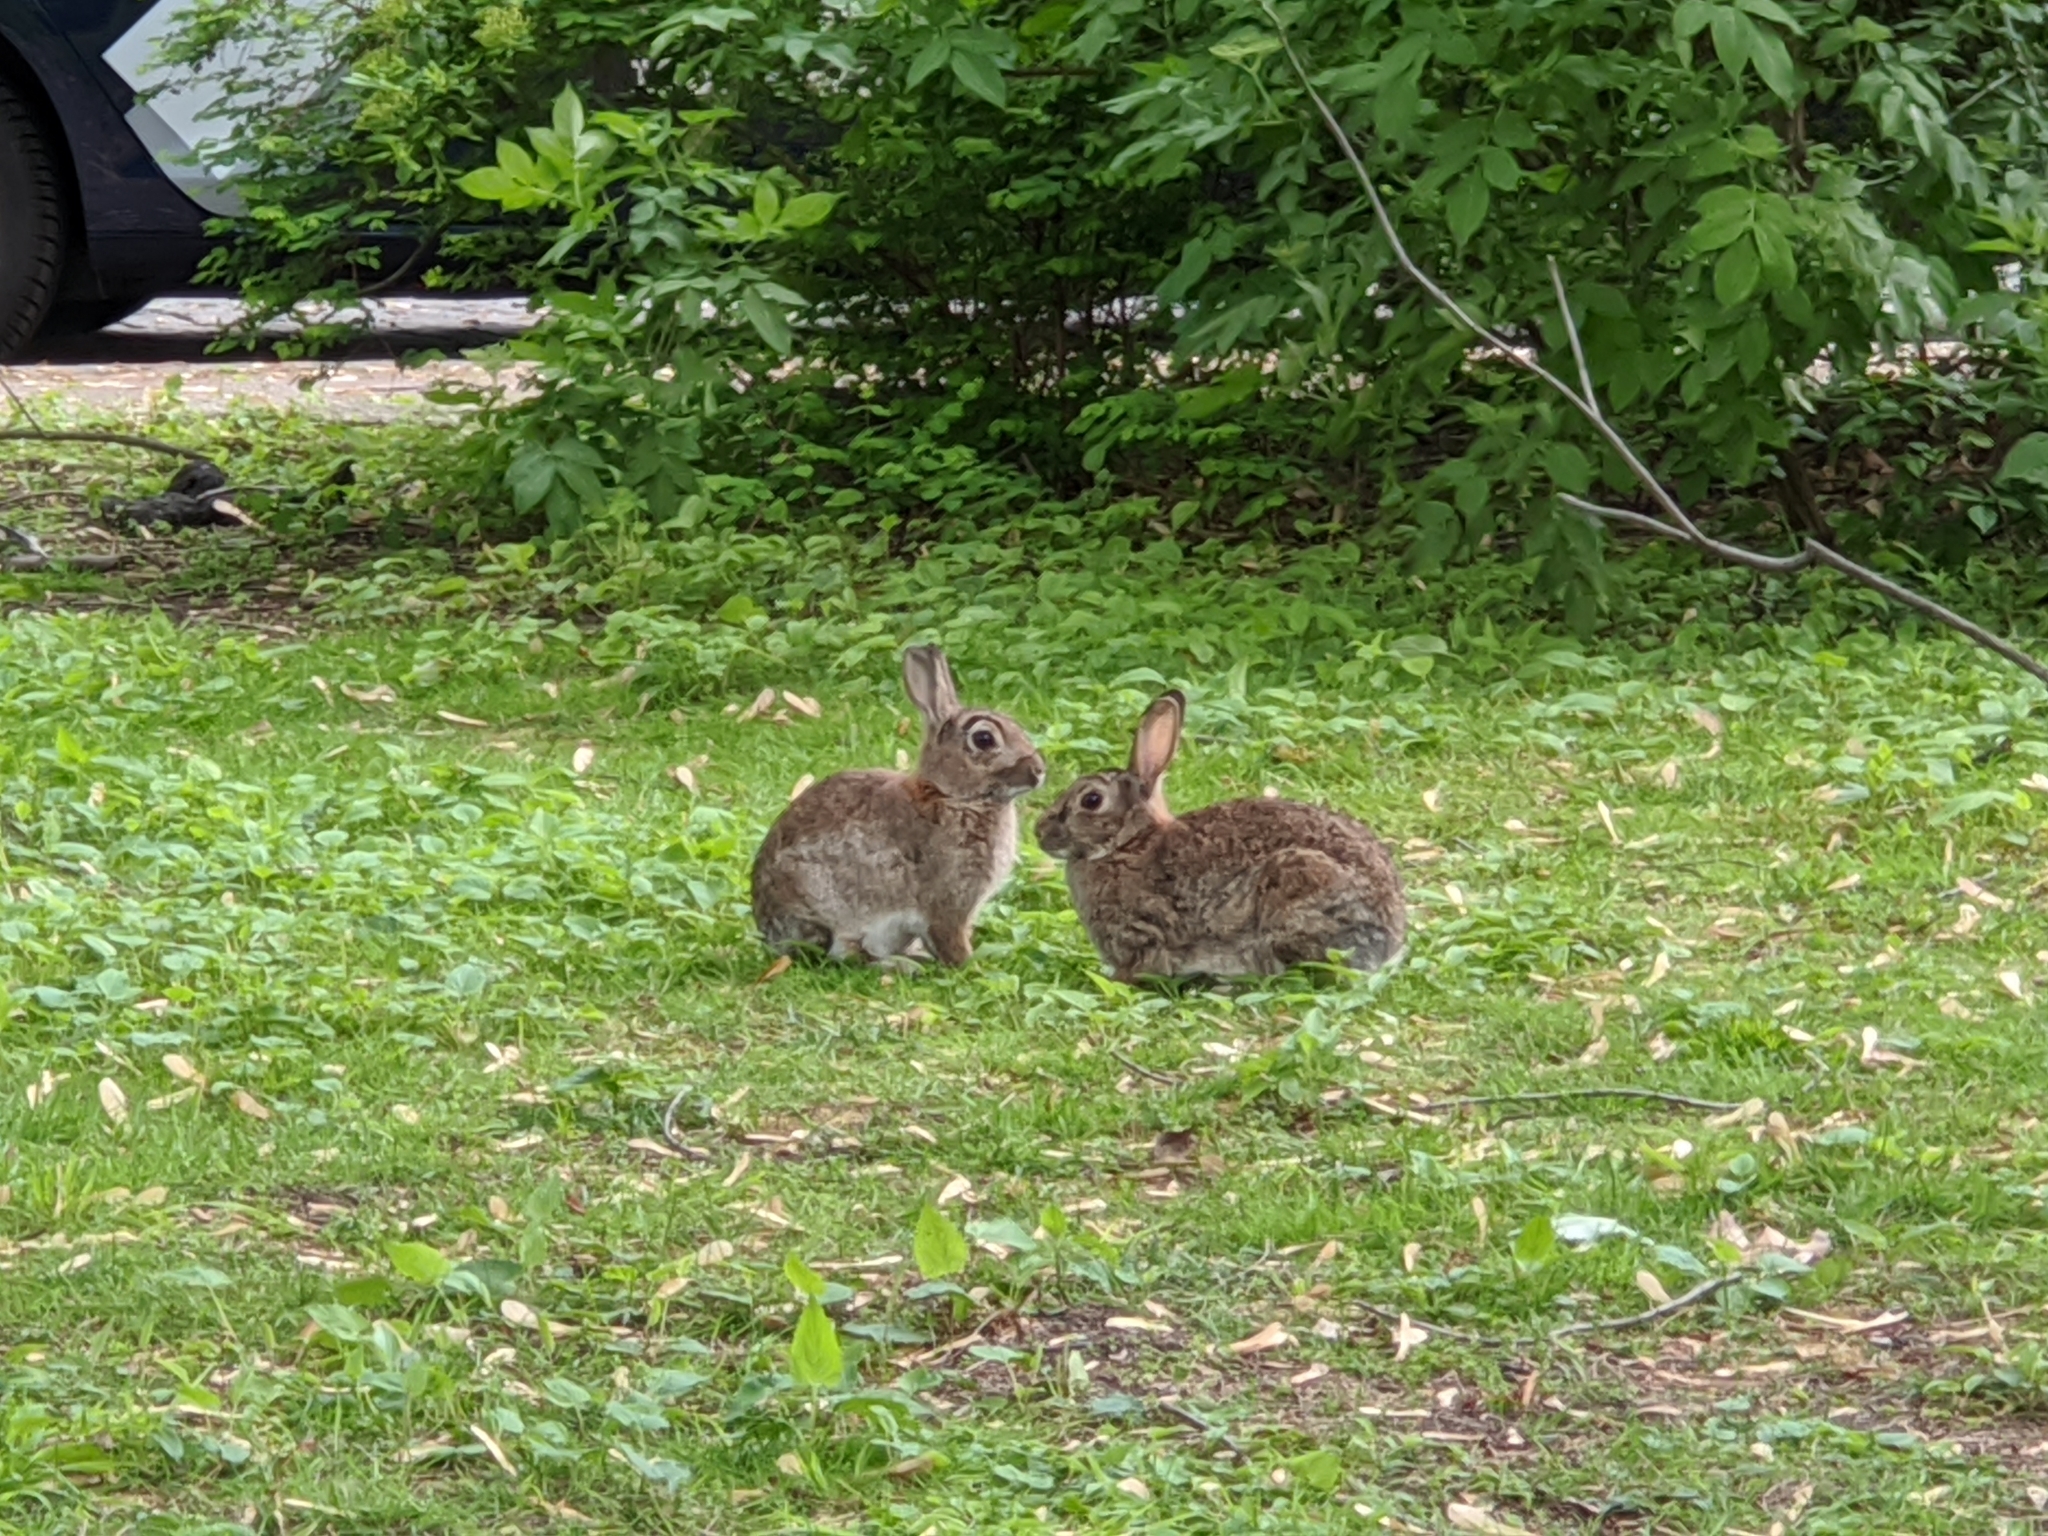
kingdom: Animalia
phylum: Chordata
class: Mammalia
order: Lagomorpha
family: Leporidae
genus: Oryctolagus
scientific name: Oryctolagus cuniculus
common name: European rabbit
